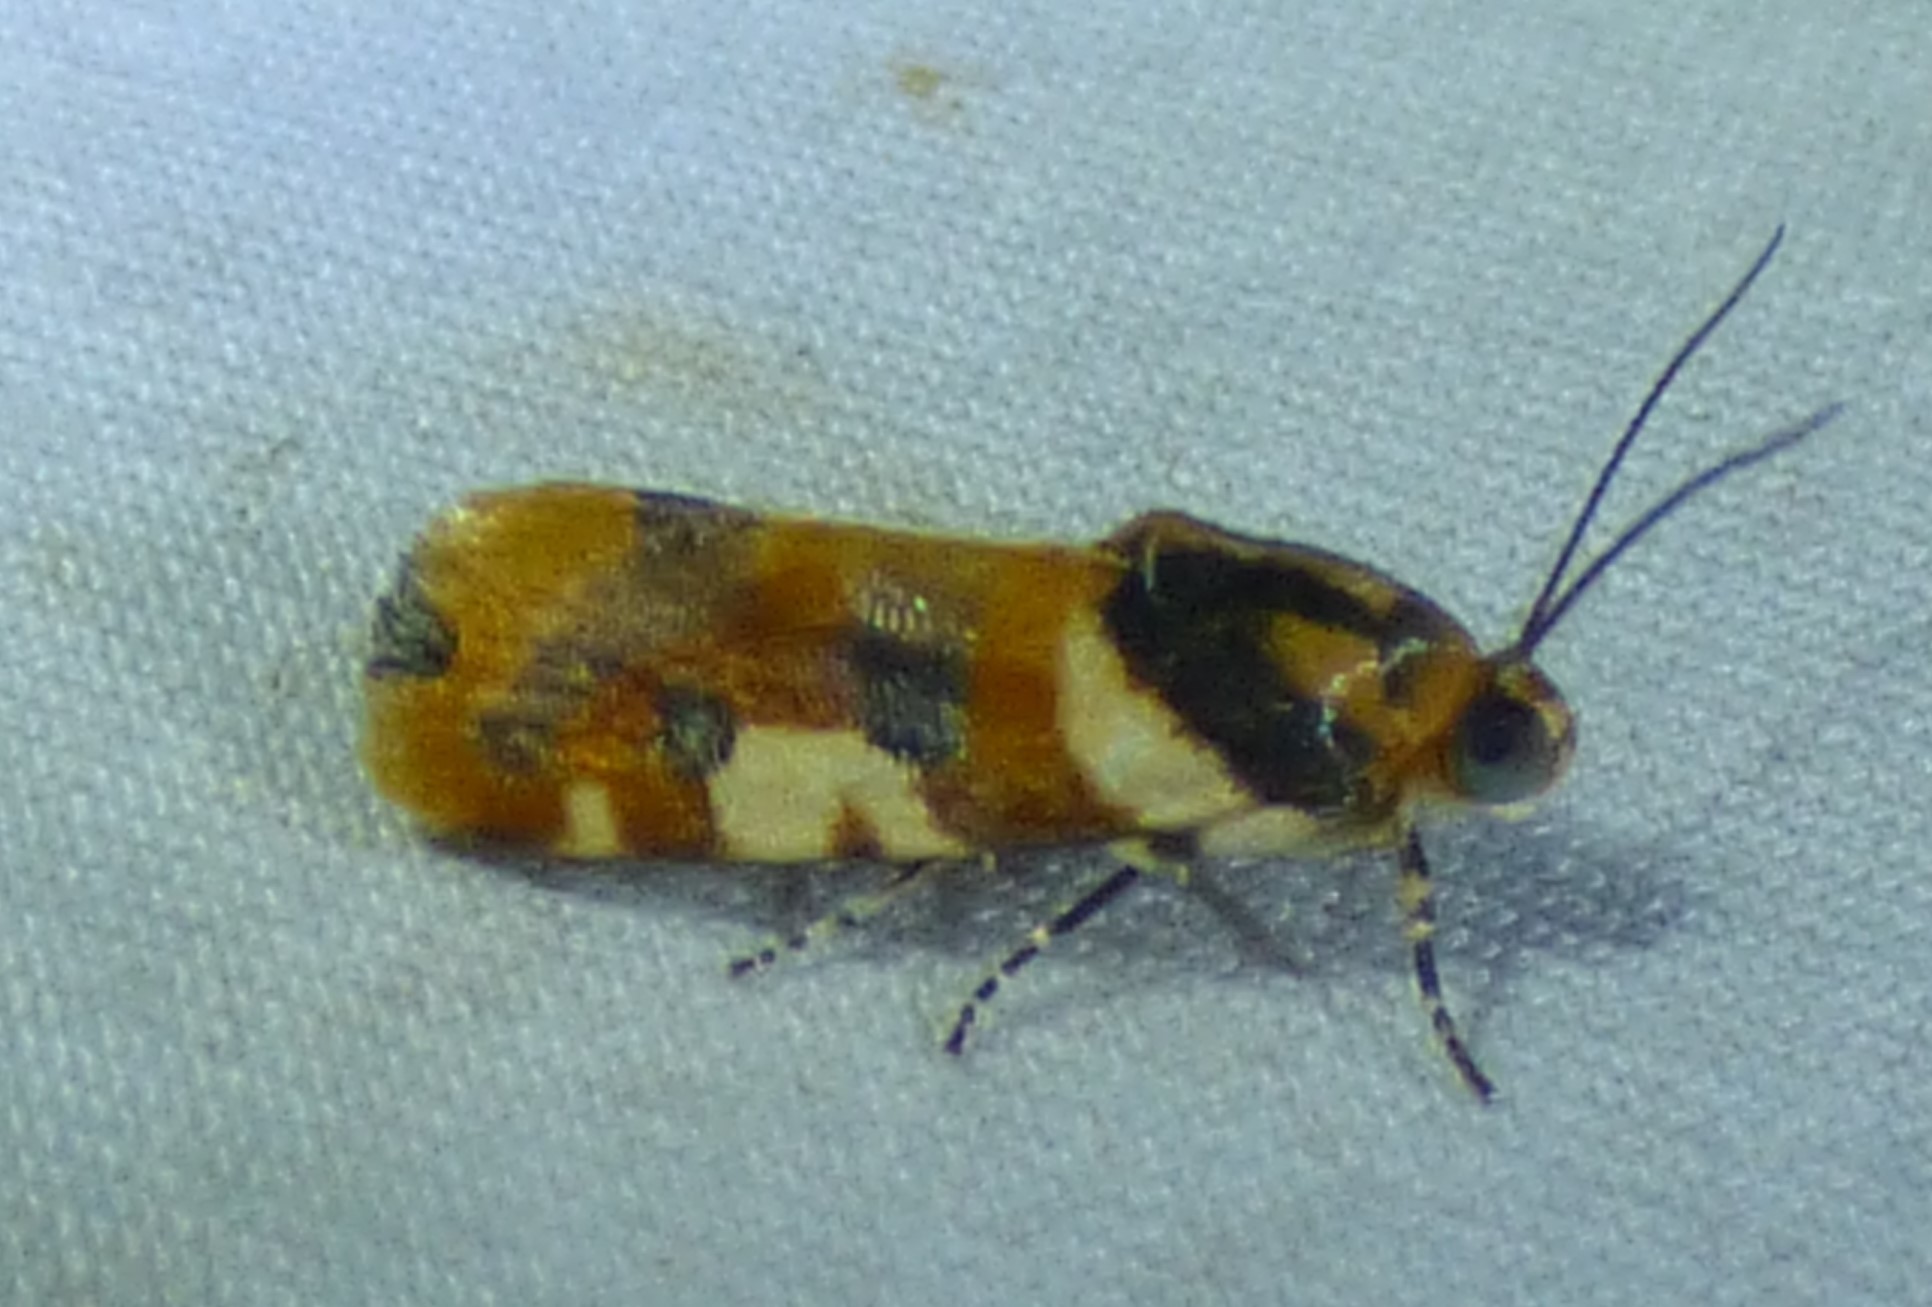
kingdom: Animalia
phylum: Arthropoda
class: Insecta
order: Lepidoptera
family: Noctuidae
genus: Acontia
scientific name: Acontia dama
